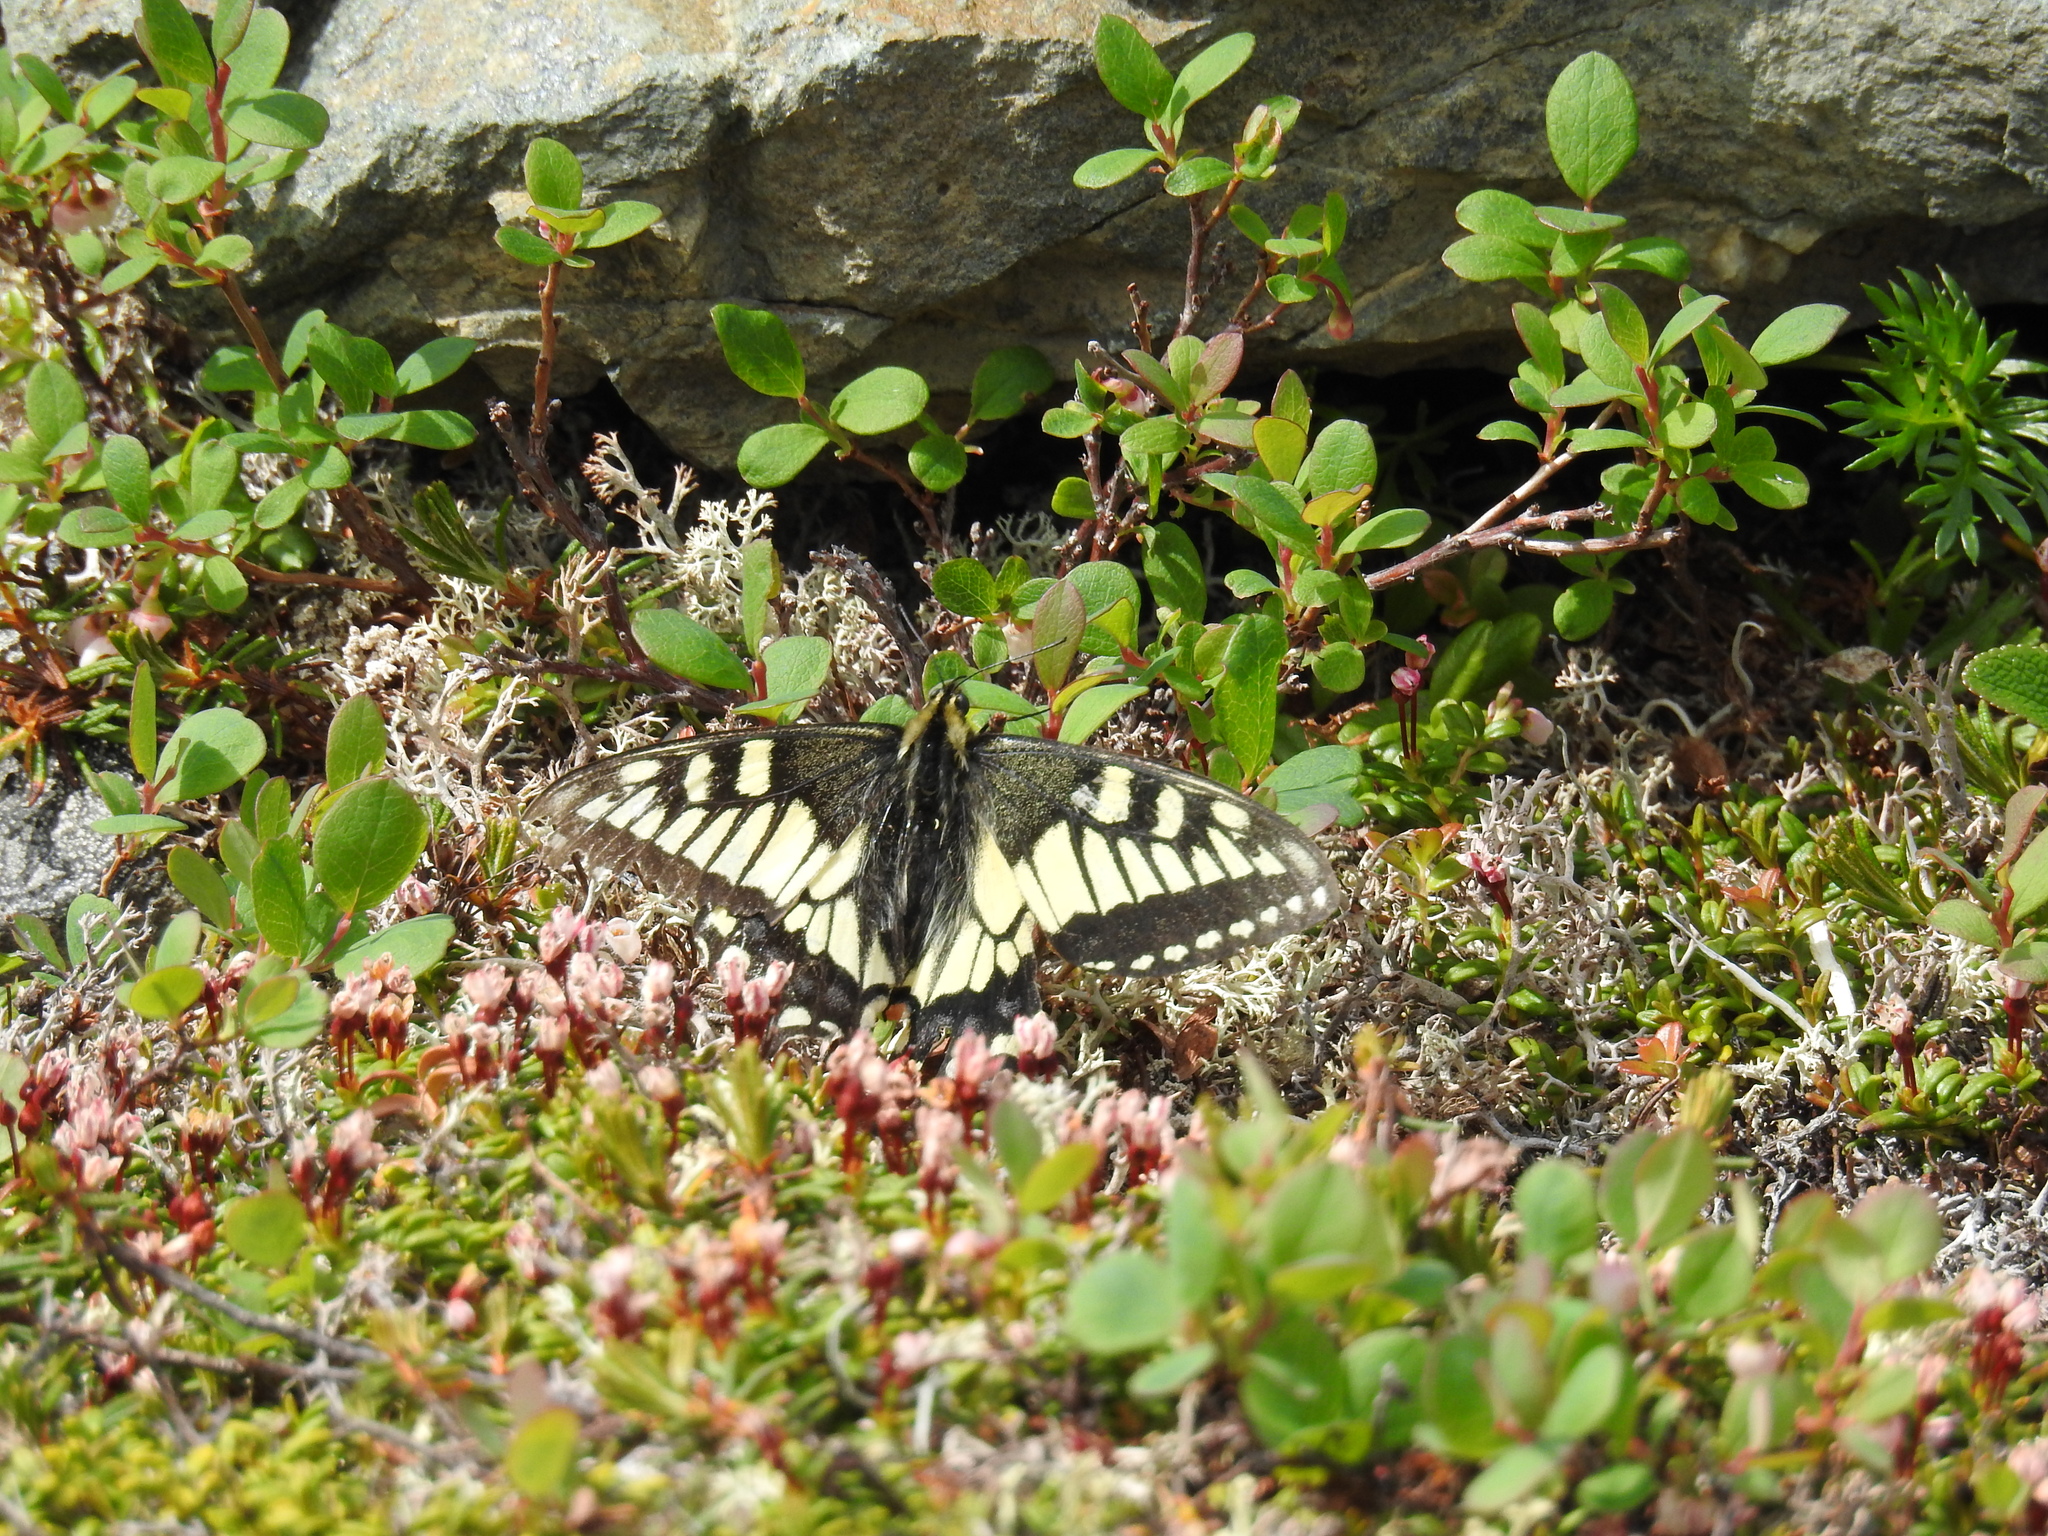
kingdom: Animalia
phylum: Arthropoda
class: Insecta
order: Lepidoptera
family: Papilionidae
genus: Papilio
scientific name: Papilio machaon
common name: Swallowtail
